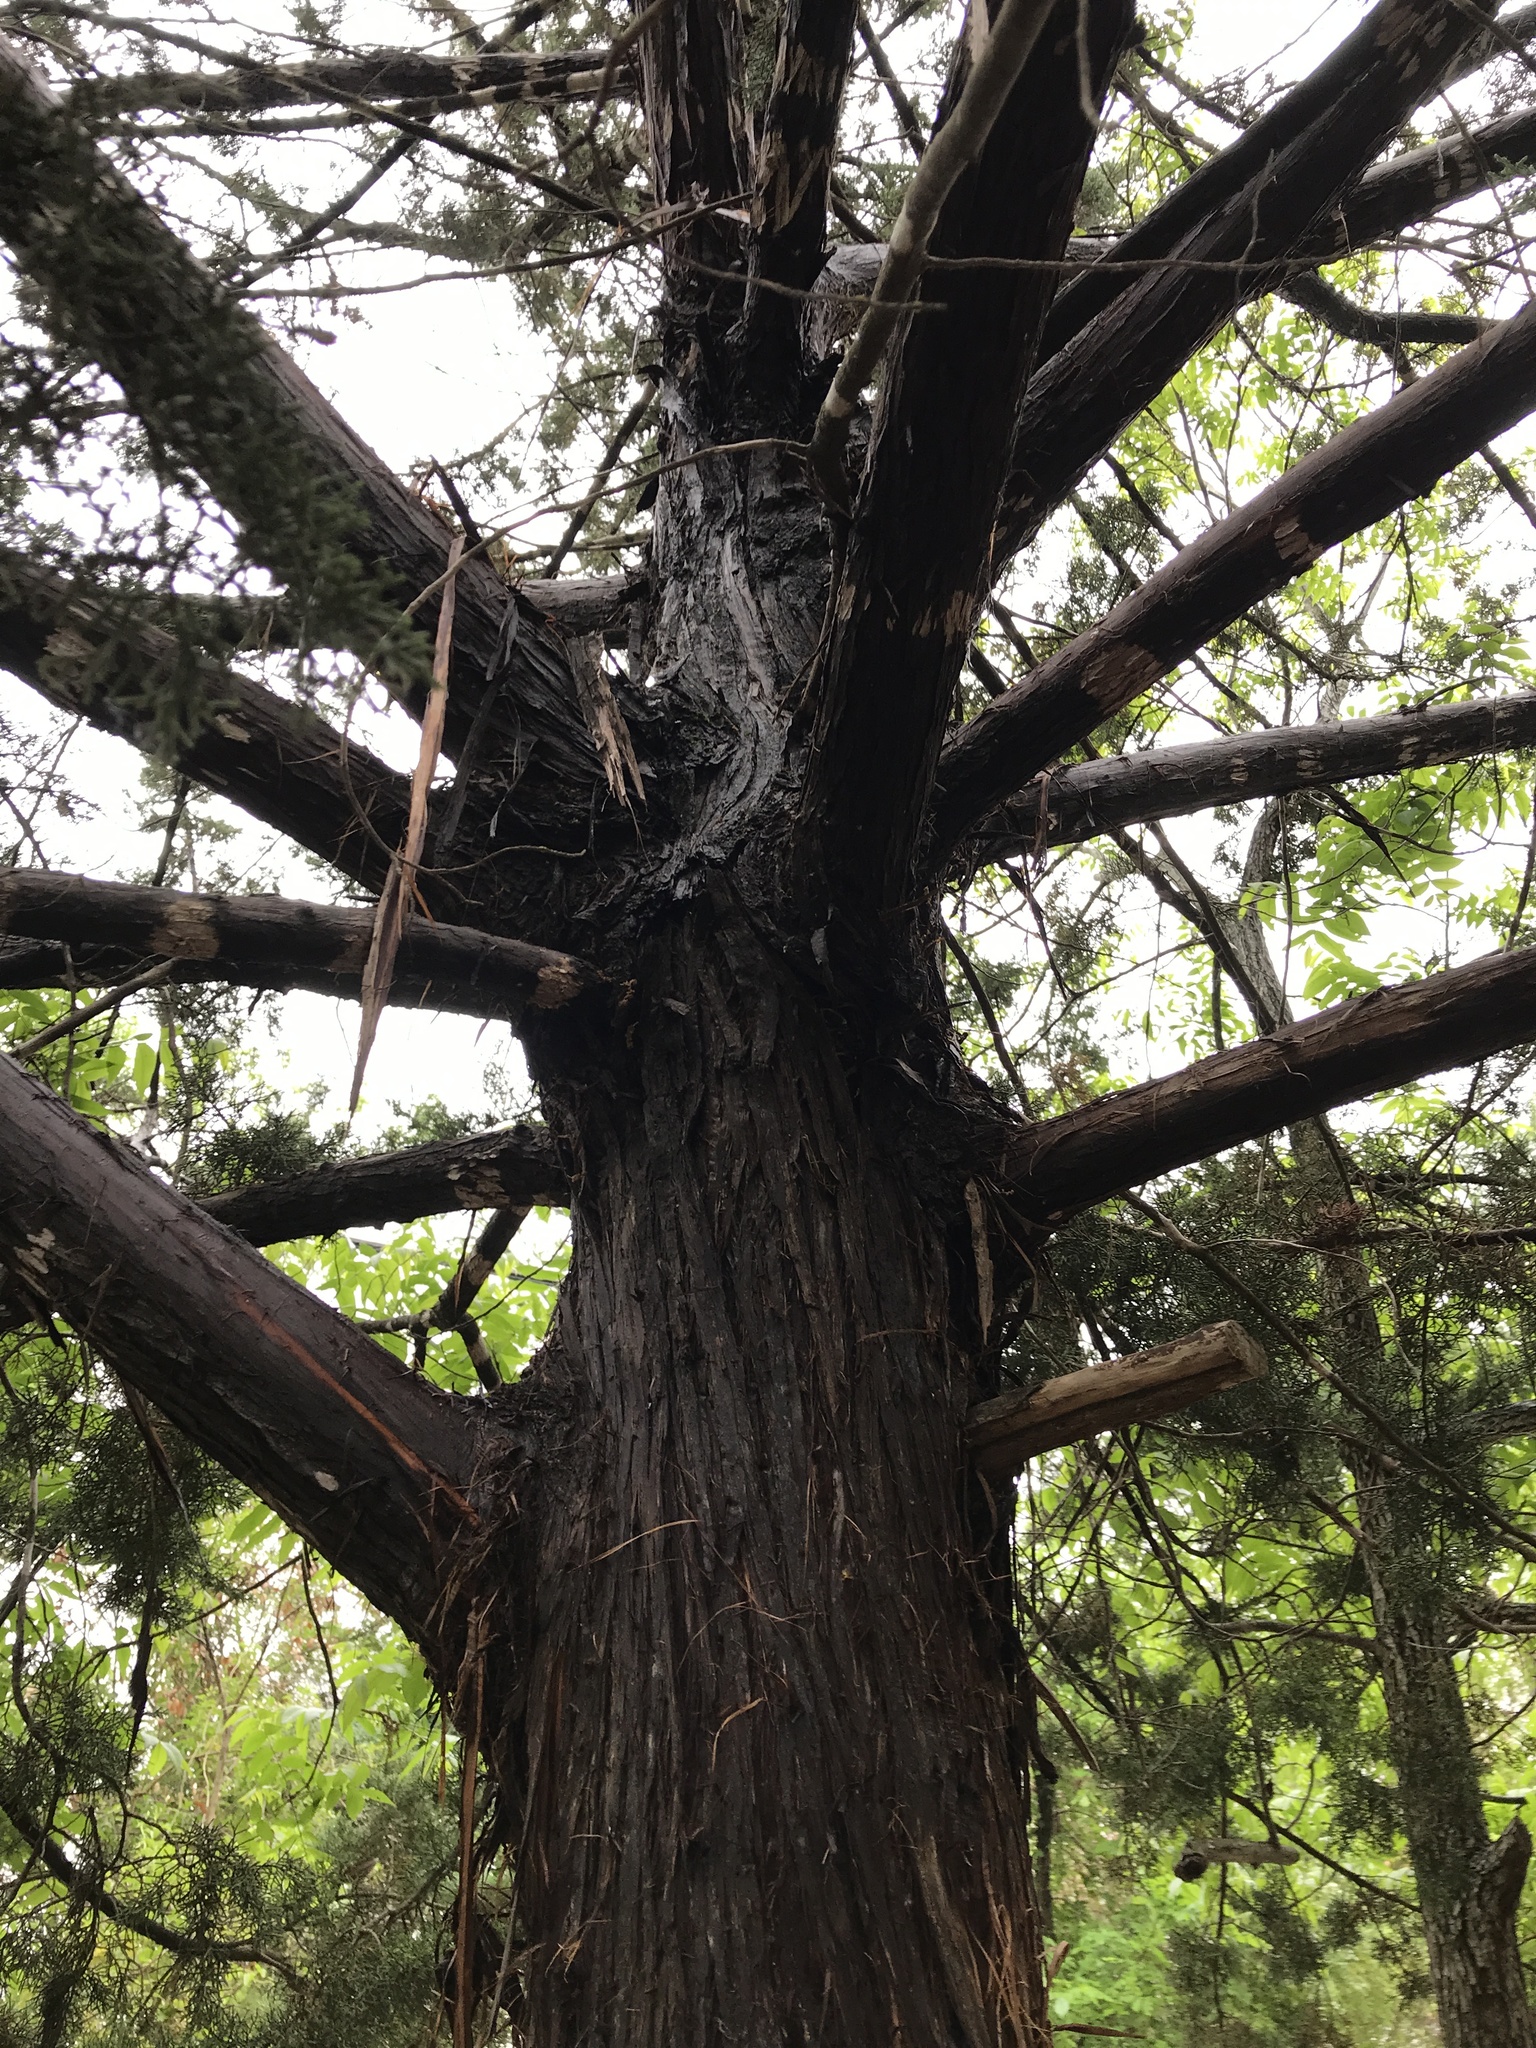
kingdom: Plantae
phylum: Tracheophyta
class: Pinopsida
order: Pinales
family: Cupressaceae
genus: Juniperus
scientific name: Juniperus ashei
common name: Mexican juniper
